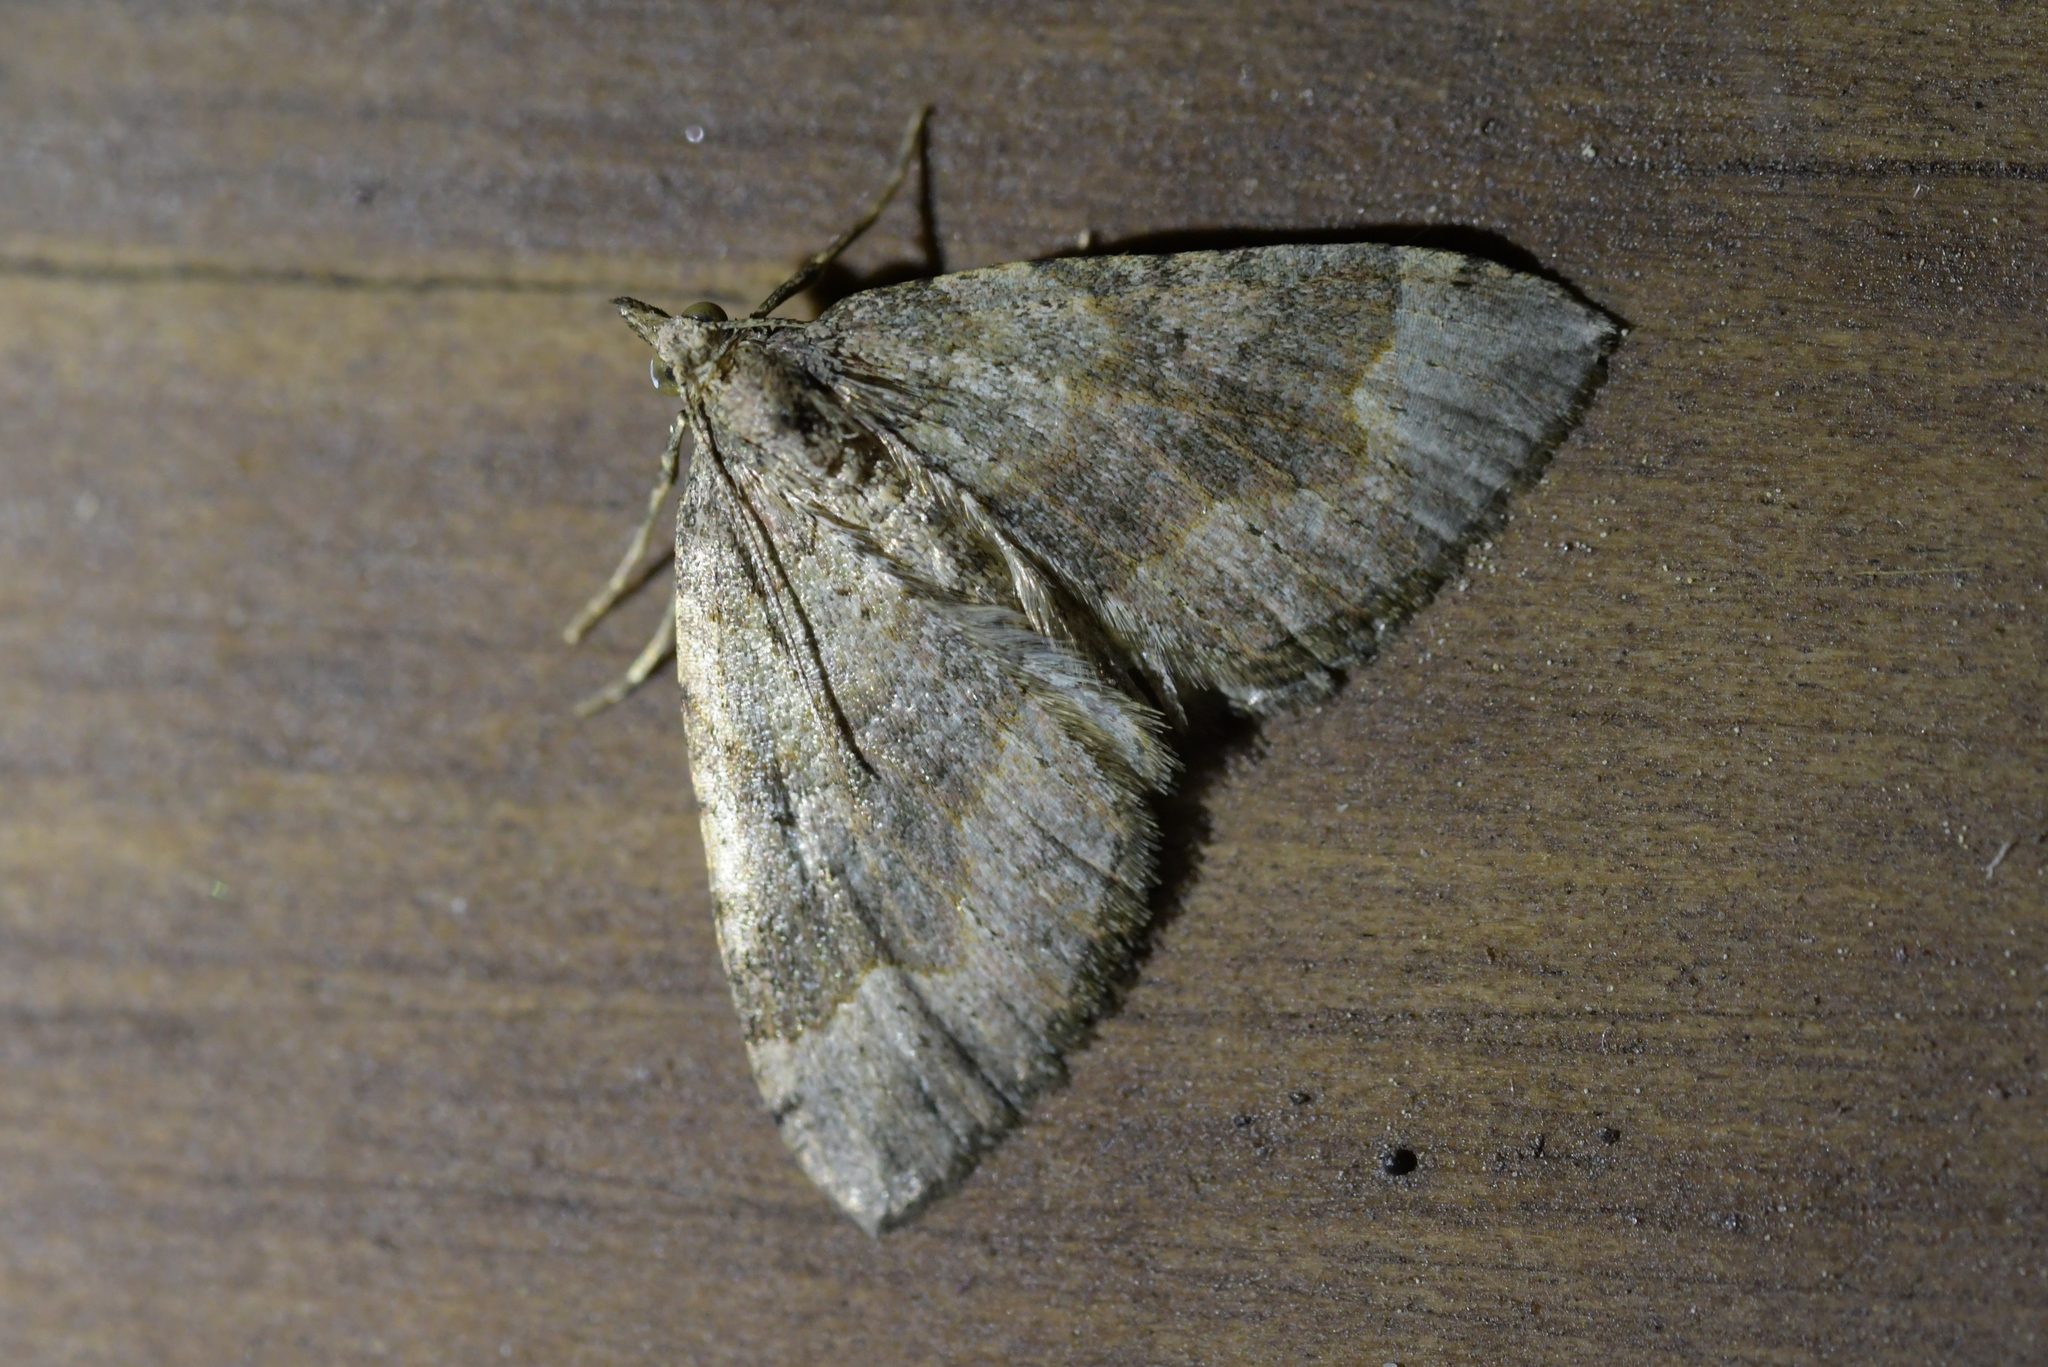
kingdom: Animalia
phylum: Arthropoda
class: Insecta
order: Lepidoptera
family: Geometridae
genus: Epyaxa
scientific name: Epyaxa rosearia
